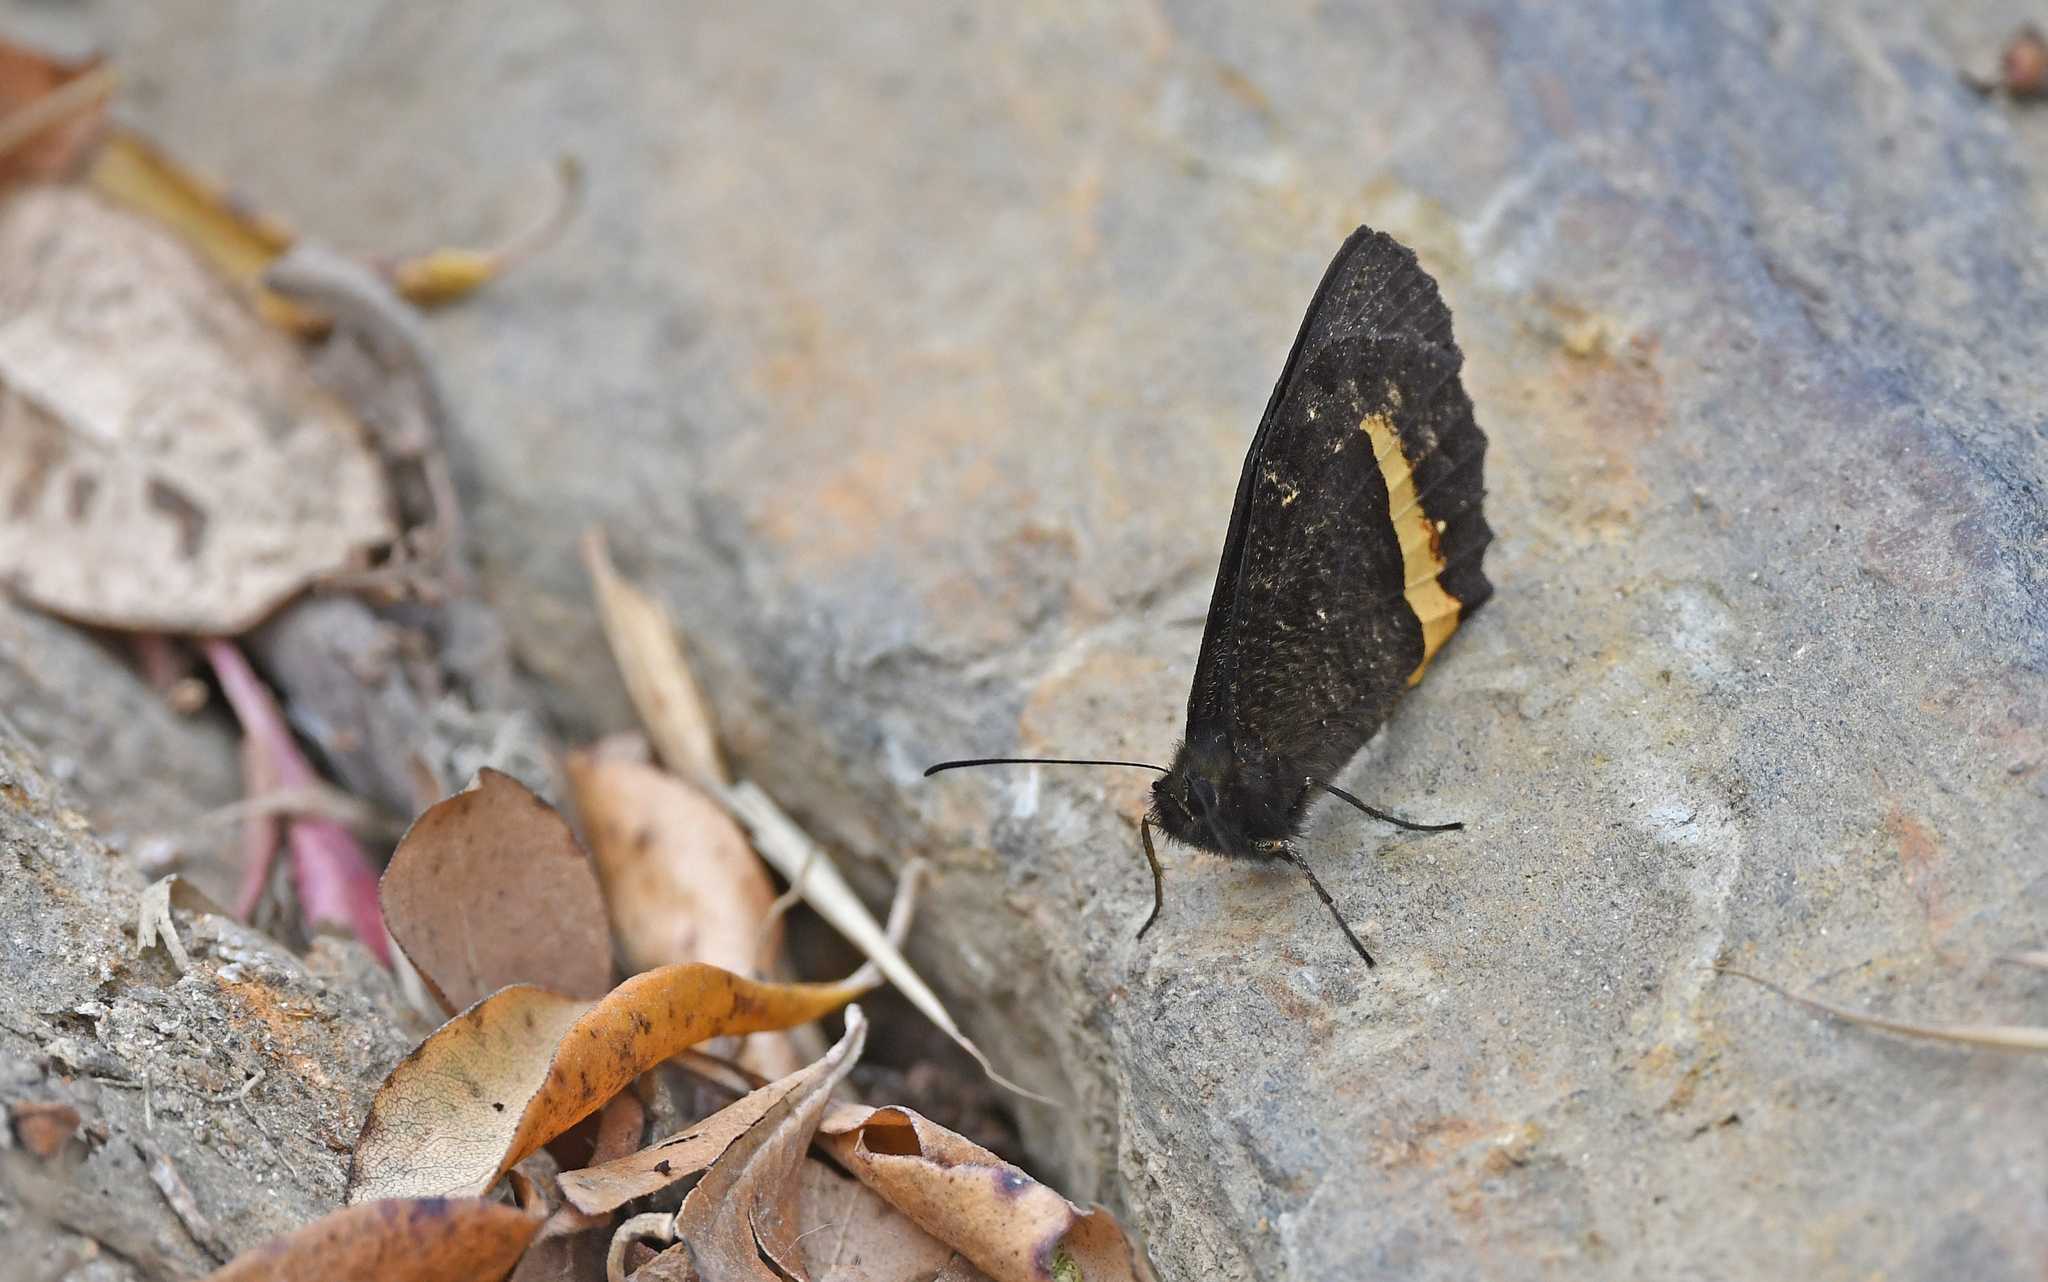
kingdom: Animalia
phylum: Arthropoda
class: Insecta
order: Lepidoptera
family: Nymphalidae
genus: Pedaliodes
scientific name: Pedaliodes tyrrheus
